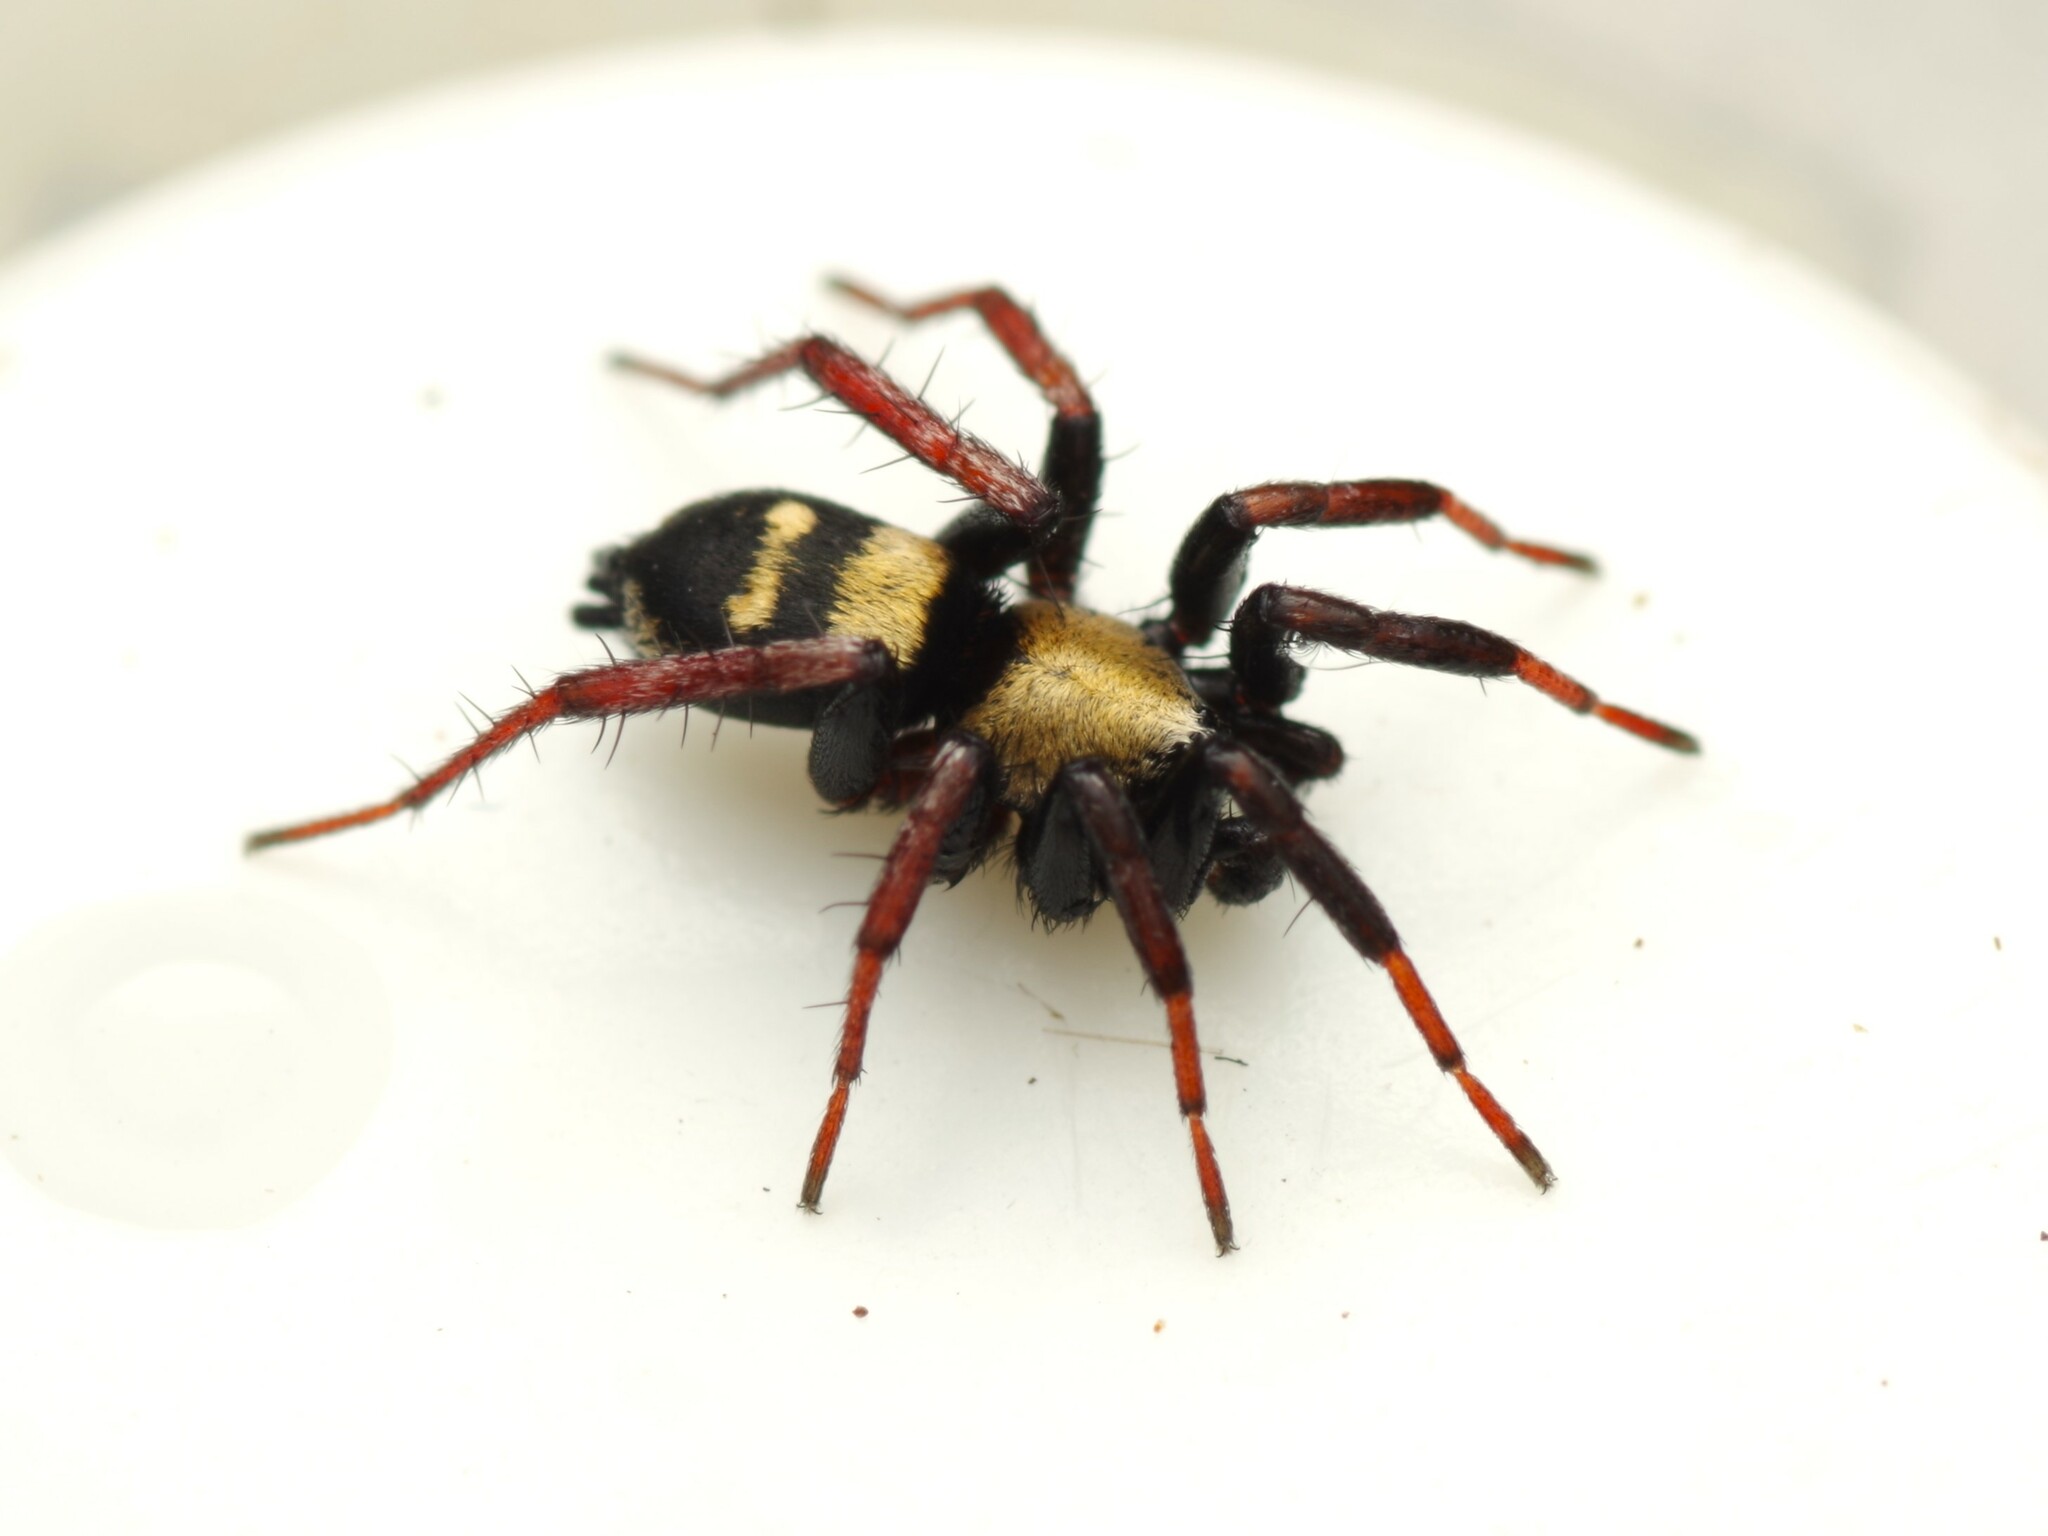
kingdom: Animalia
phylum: Arthropoda
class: Arachnida
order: Araneae
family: Gnaphosidae
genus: Callilepis
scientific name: Callilepis schuszteri
